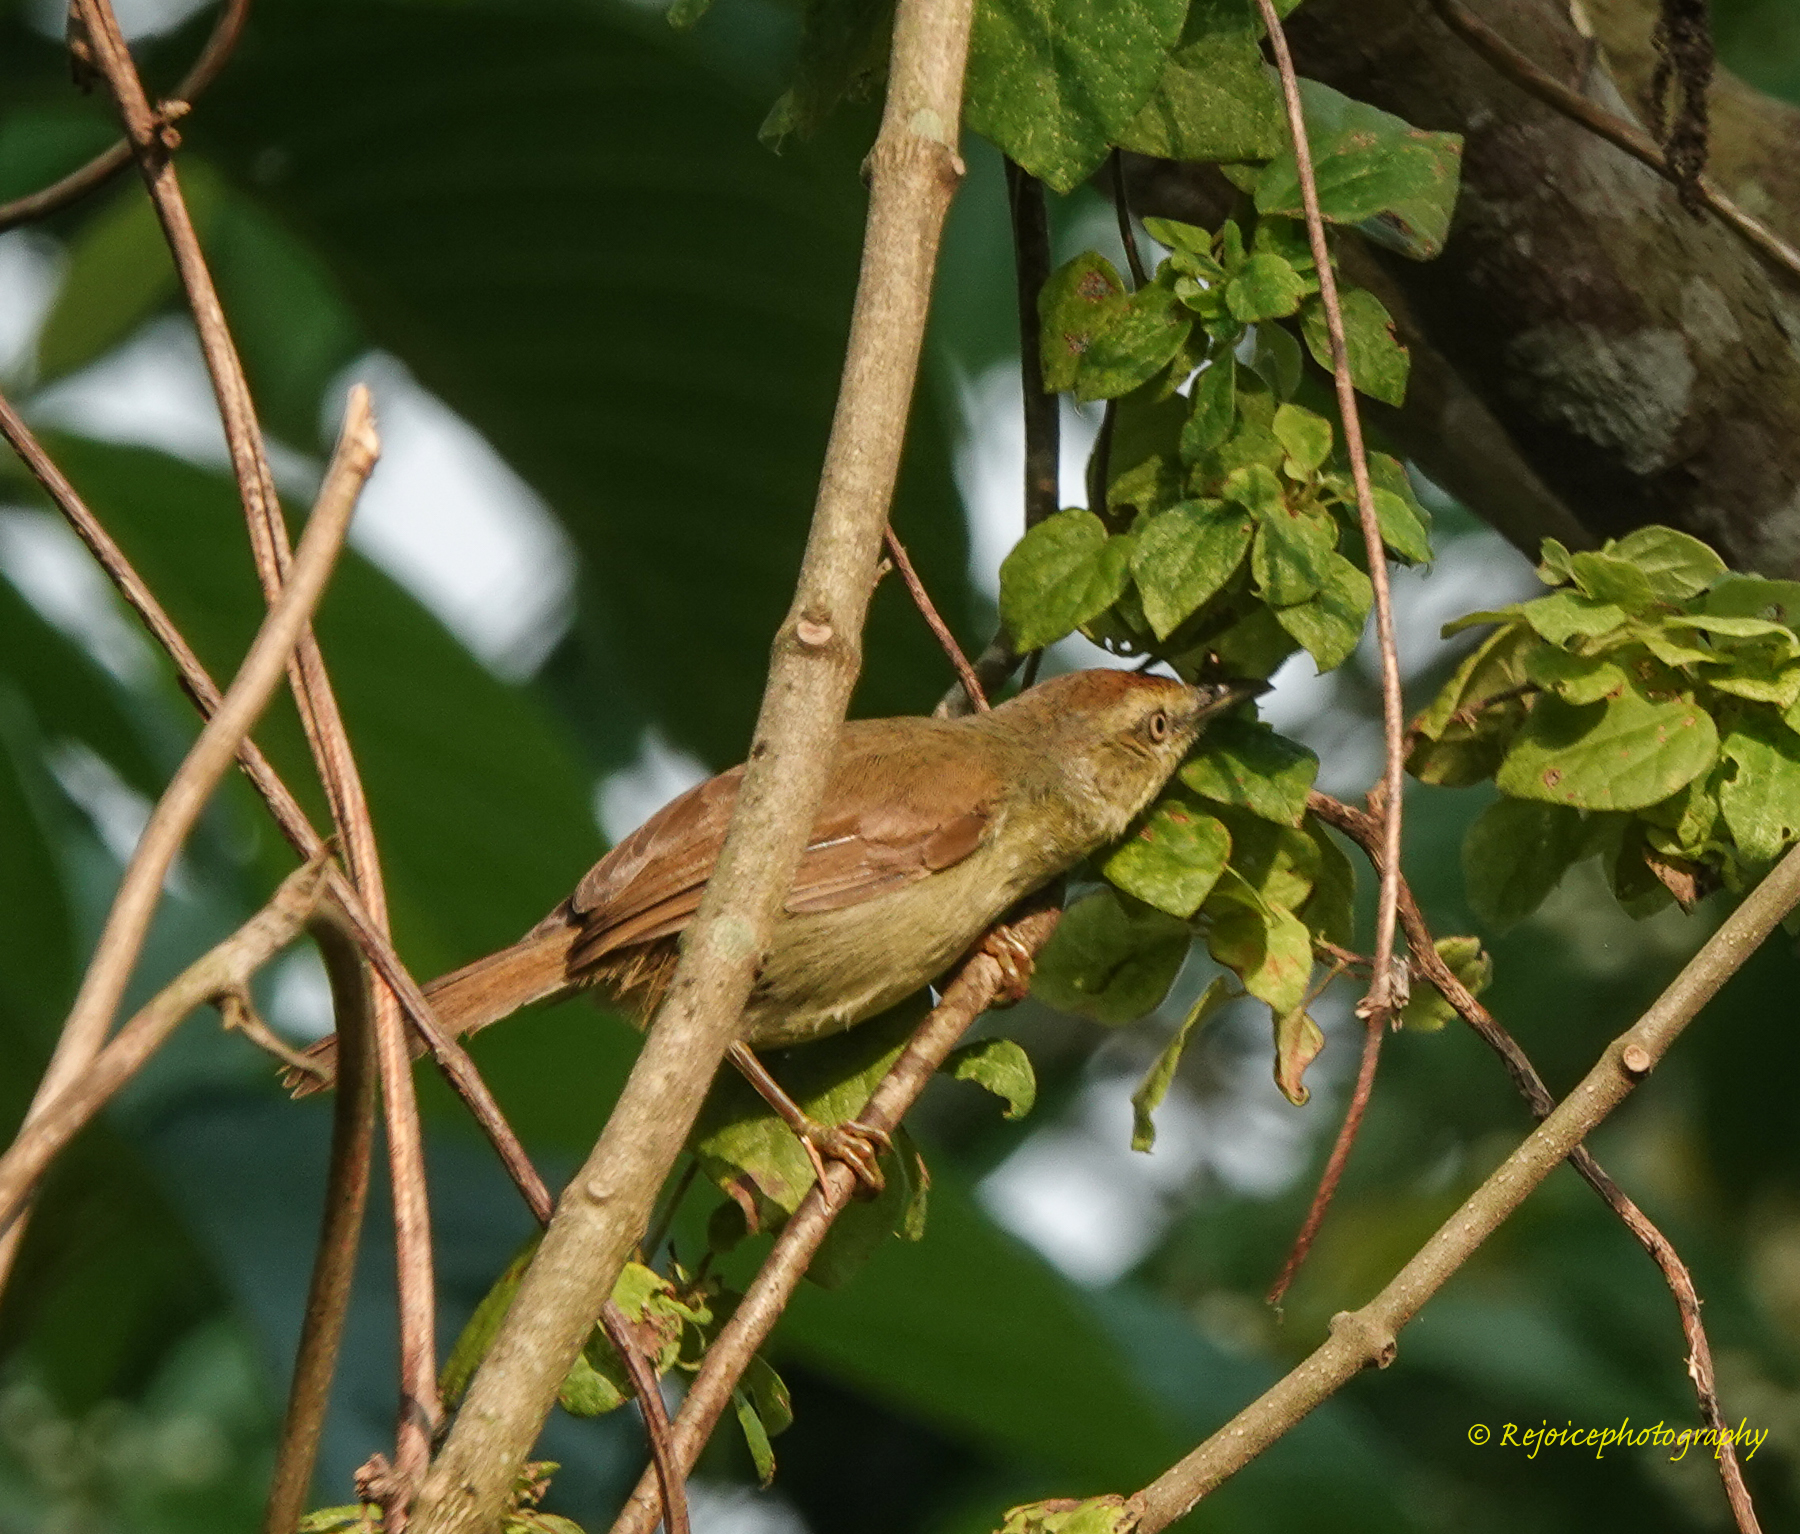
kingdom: Animalia
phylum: Chordata
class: Aves
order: Passeriformes
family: Timaliidae
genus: Macronus
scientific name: Macronus gularis
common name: Striped tit-babbler
